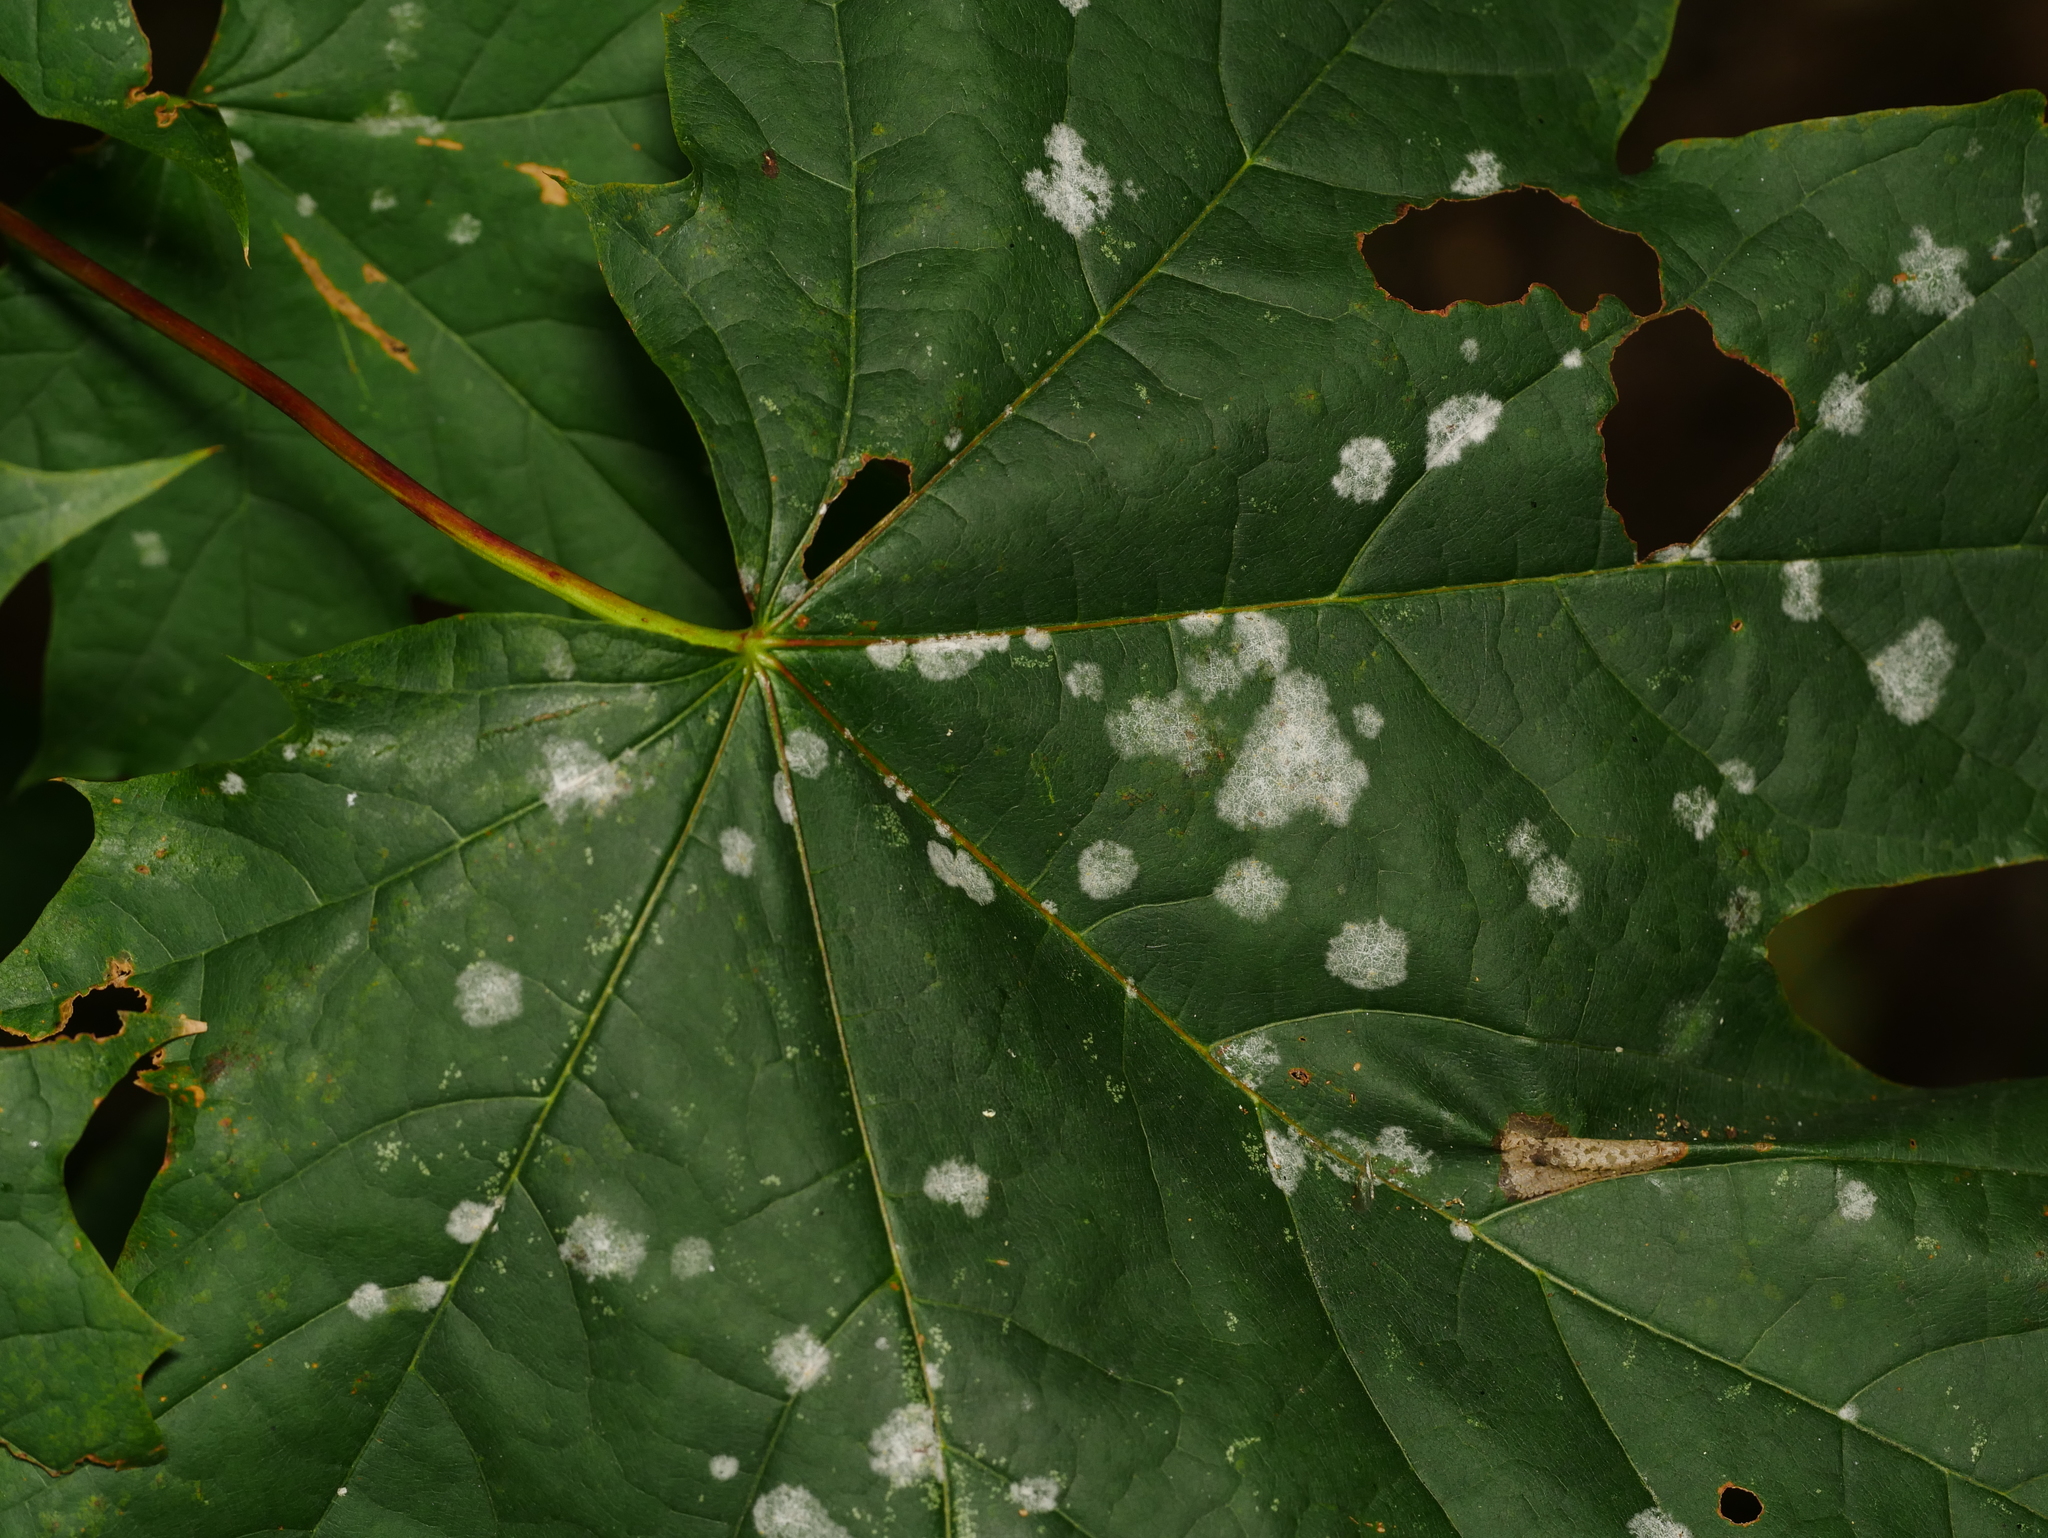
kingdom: Fungi
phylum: Ascomycota
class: Leotiomycetes
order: Helotiales
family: Erysiphaceae
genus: Sawadaea
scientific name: Sawadaea tulasnei
